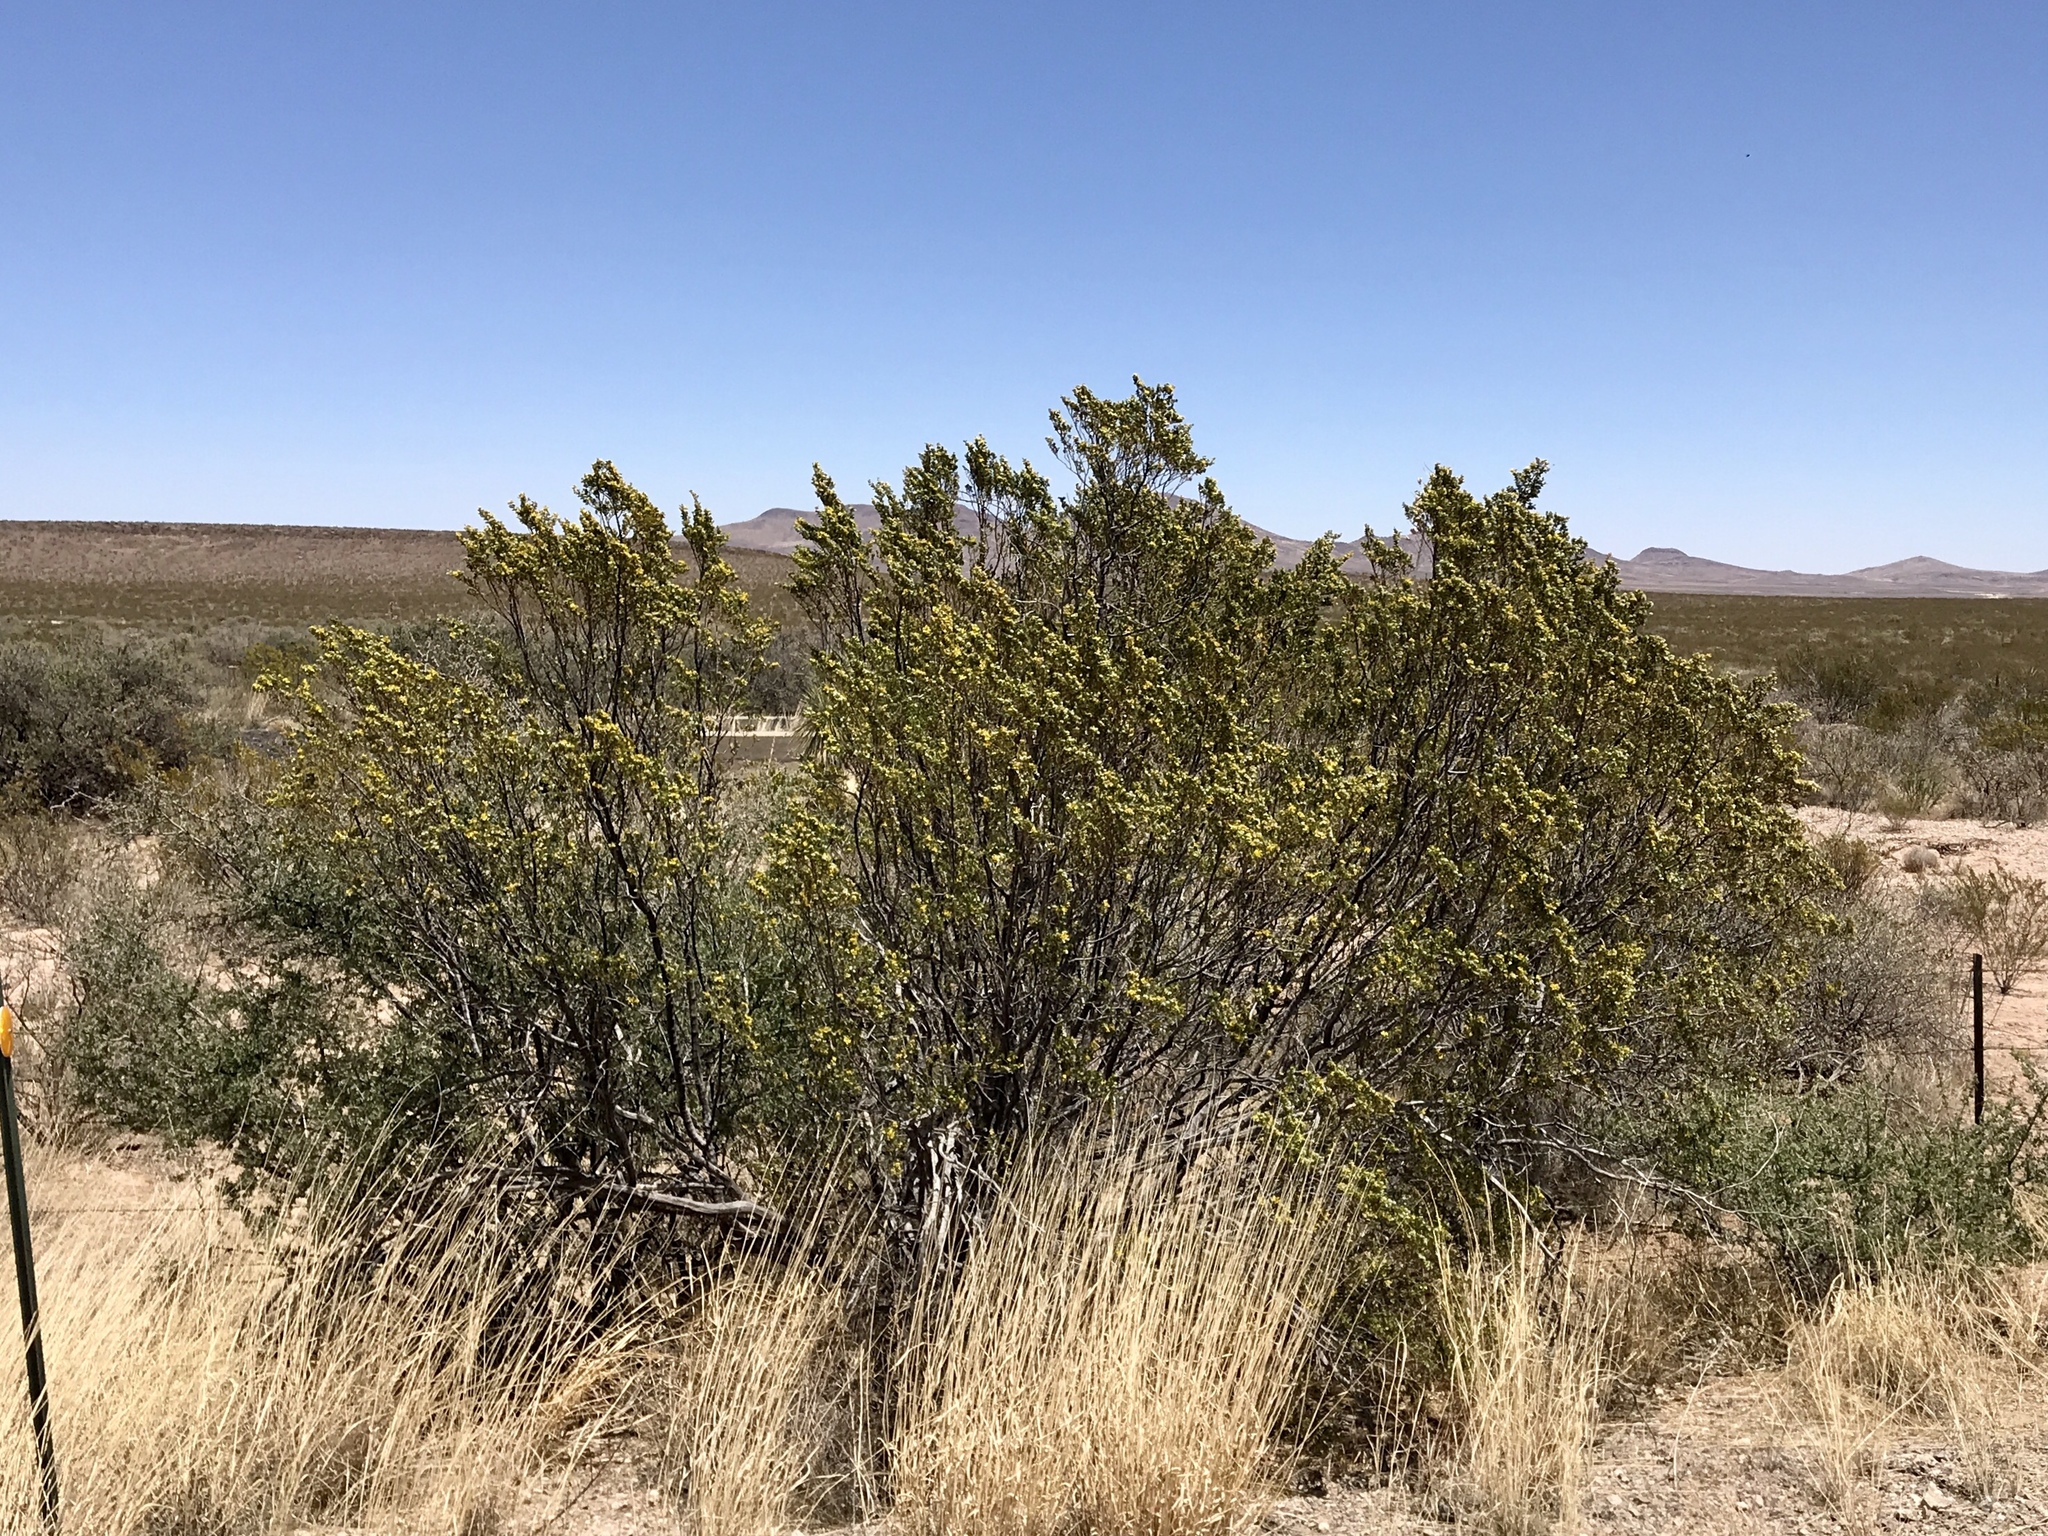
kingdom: Plantae
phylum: Tracheophyta
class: Magnoliopsida
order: Zygophyllales
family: Zygophyllaceae
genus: Larrea
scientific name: Larrea tridentata
